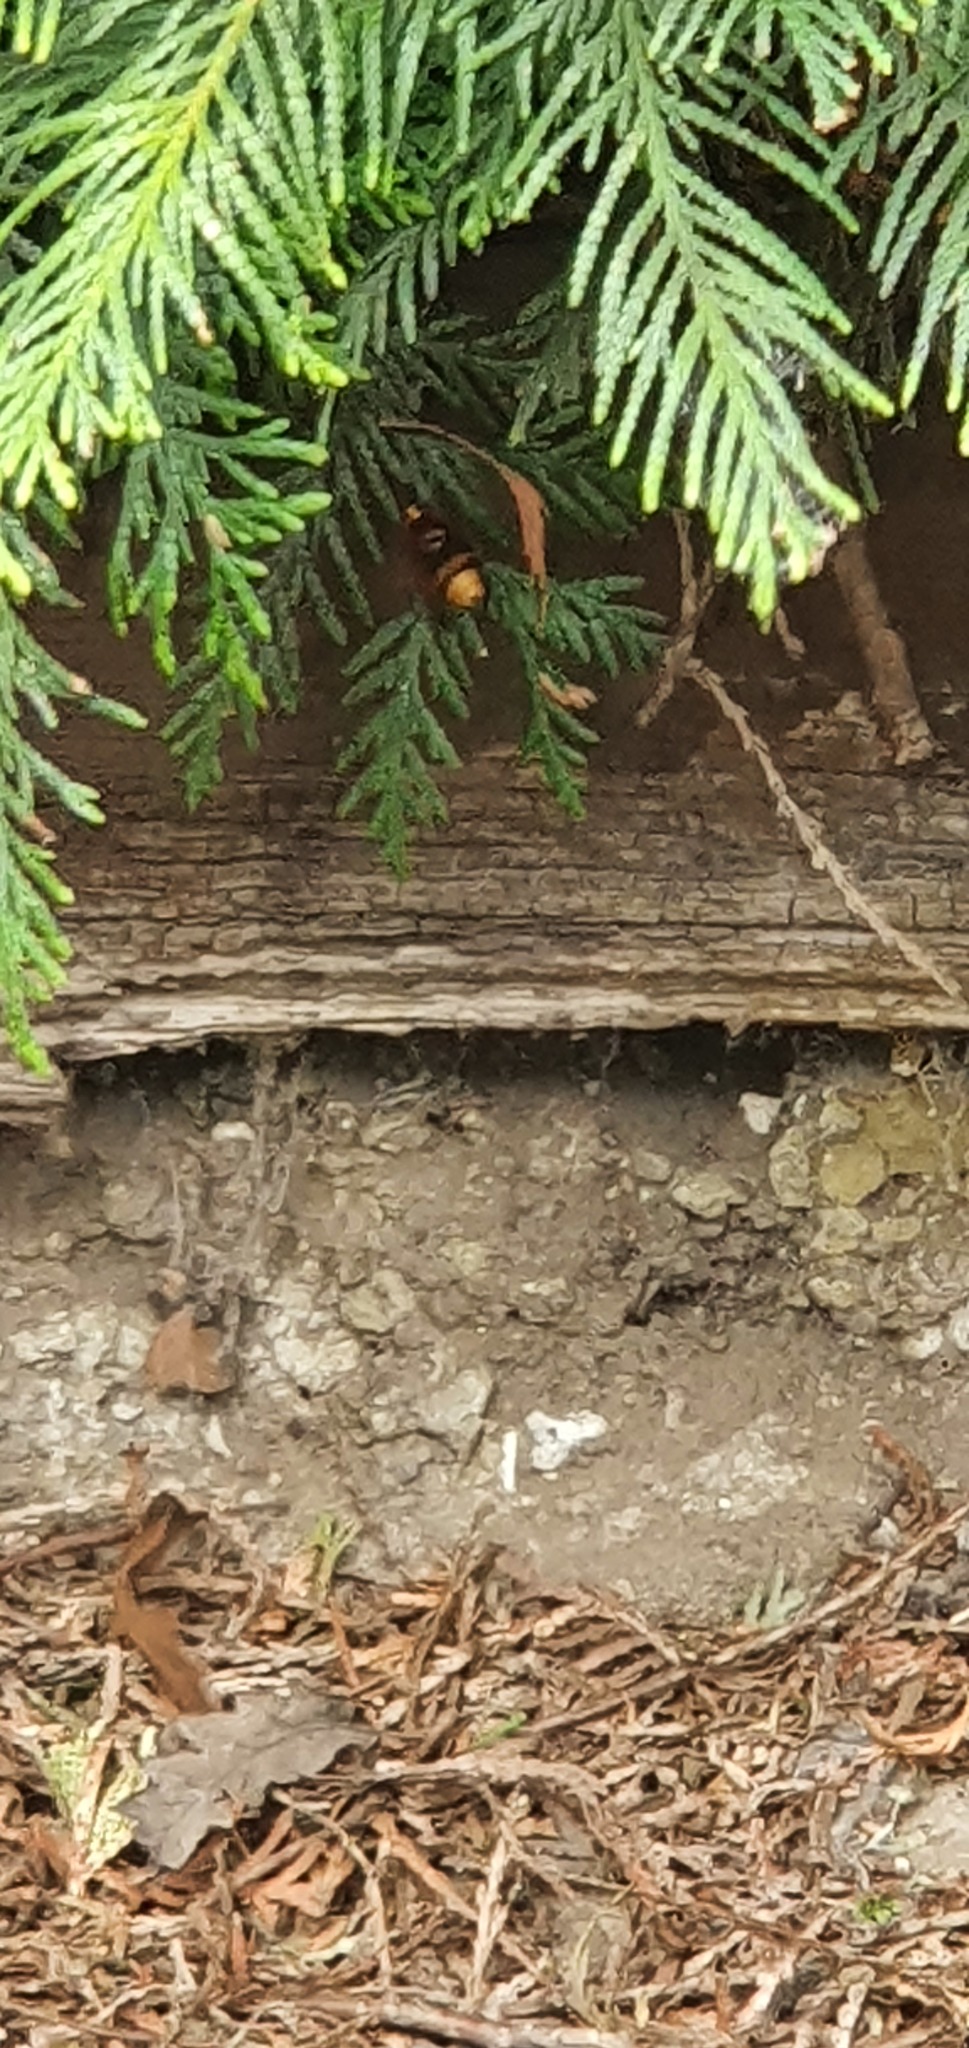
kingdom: Animalia
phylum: Arthropoda
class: Insecta
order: Diptera
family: Syrphidae
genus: Volucella
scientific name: Volucella zonaria
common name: Hornet hoverfly
